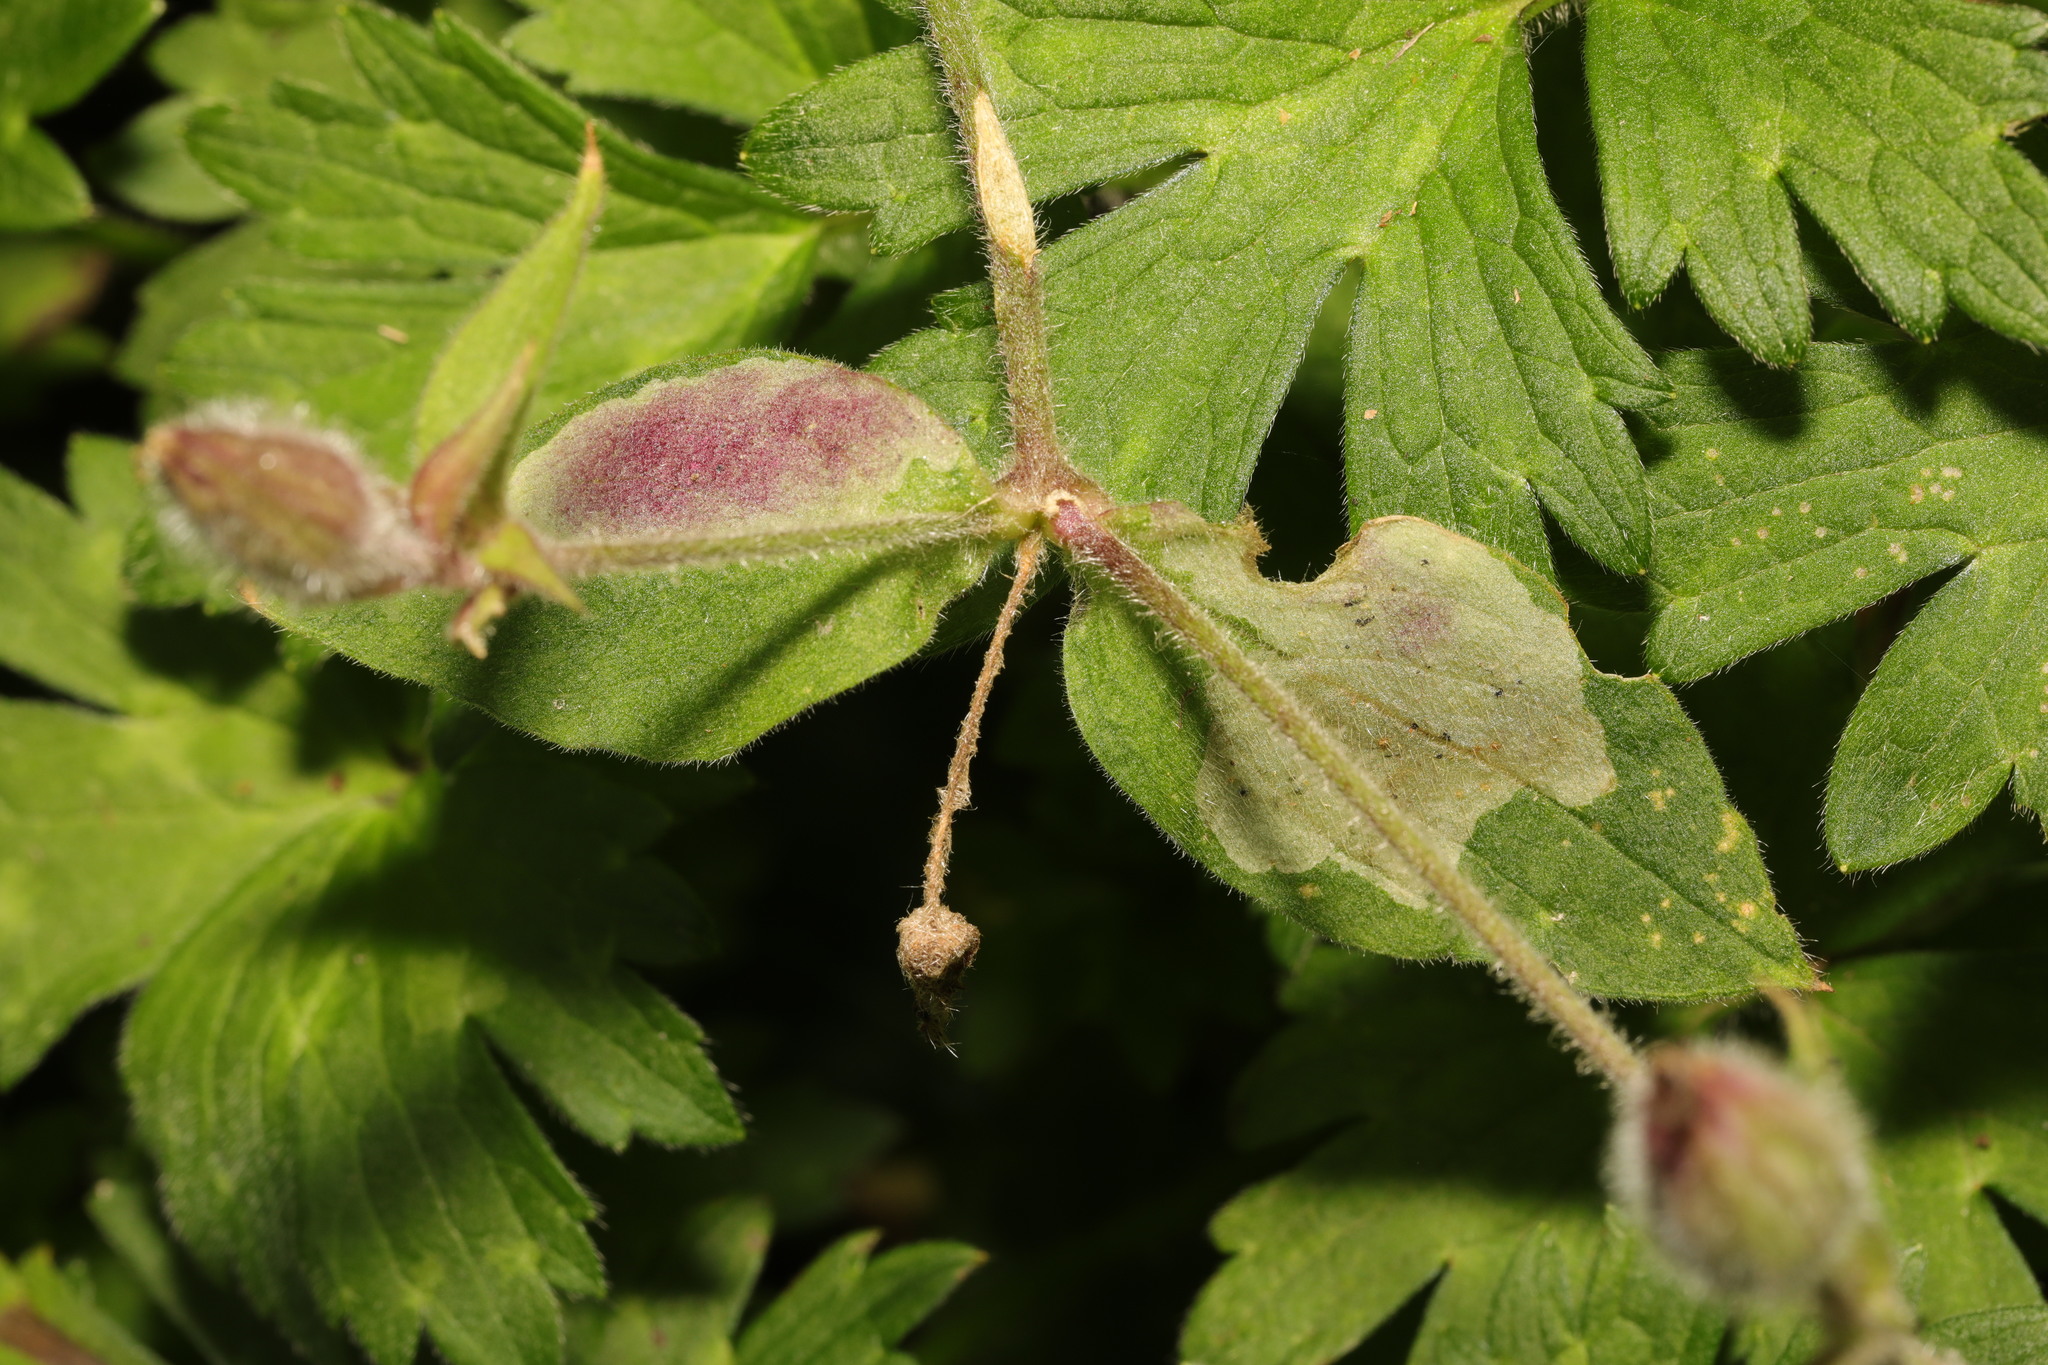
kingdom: Animalia
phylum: Arthropoda
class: Insecta
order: Diptera
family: Agromyzidae
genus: Amauromyza
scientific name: Amauromyza flavifrons
